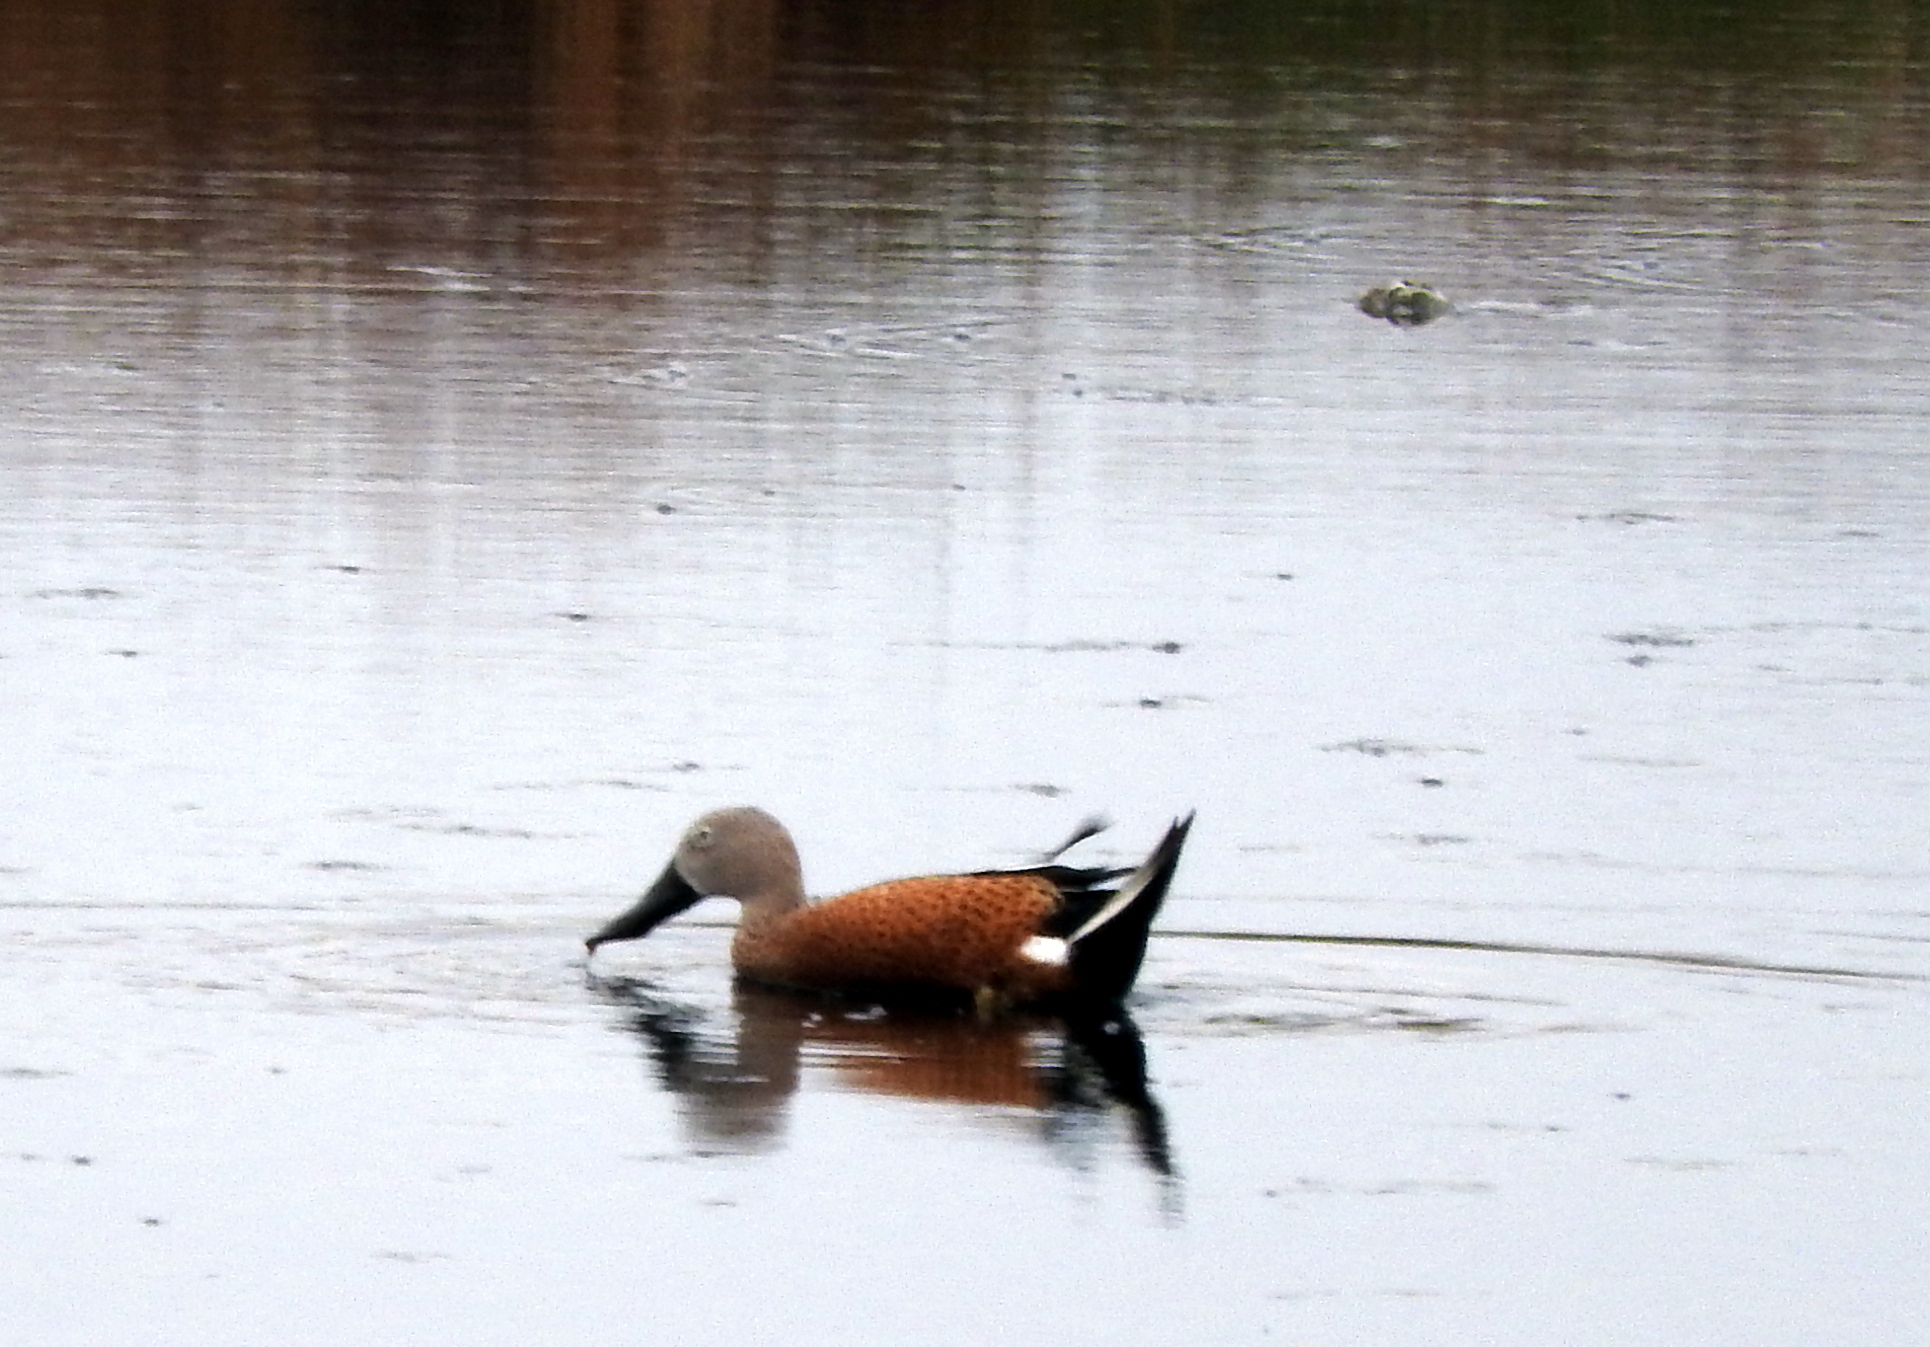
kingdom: Animalia
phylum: Chordata
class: Aves
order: Anseriformes
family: Anatidae
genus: Spatula
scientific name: Spatula platalea
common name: Red shoveler
